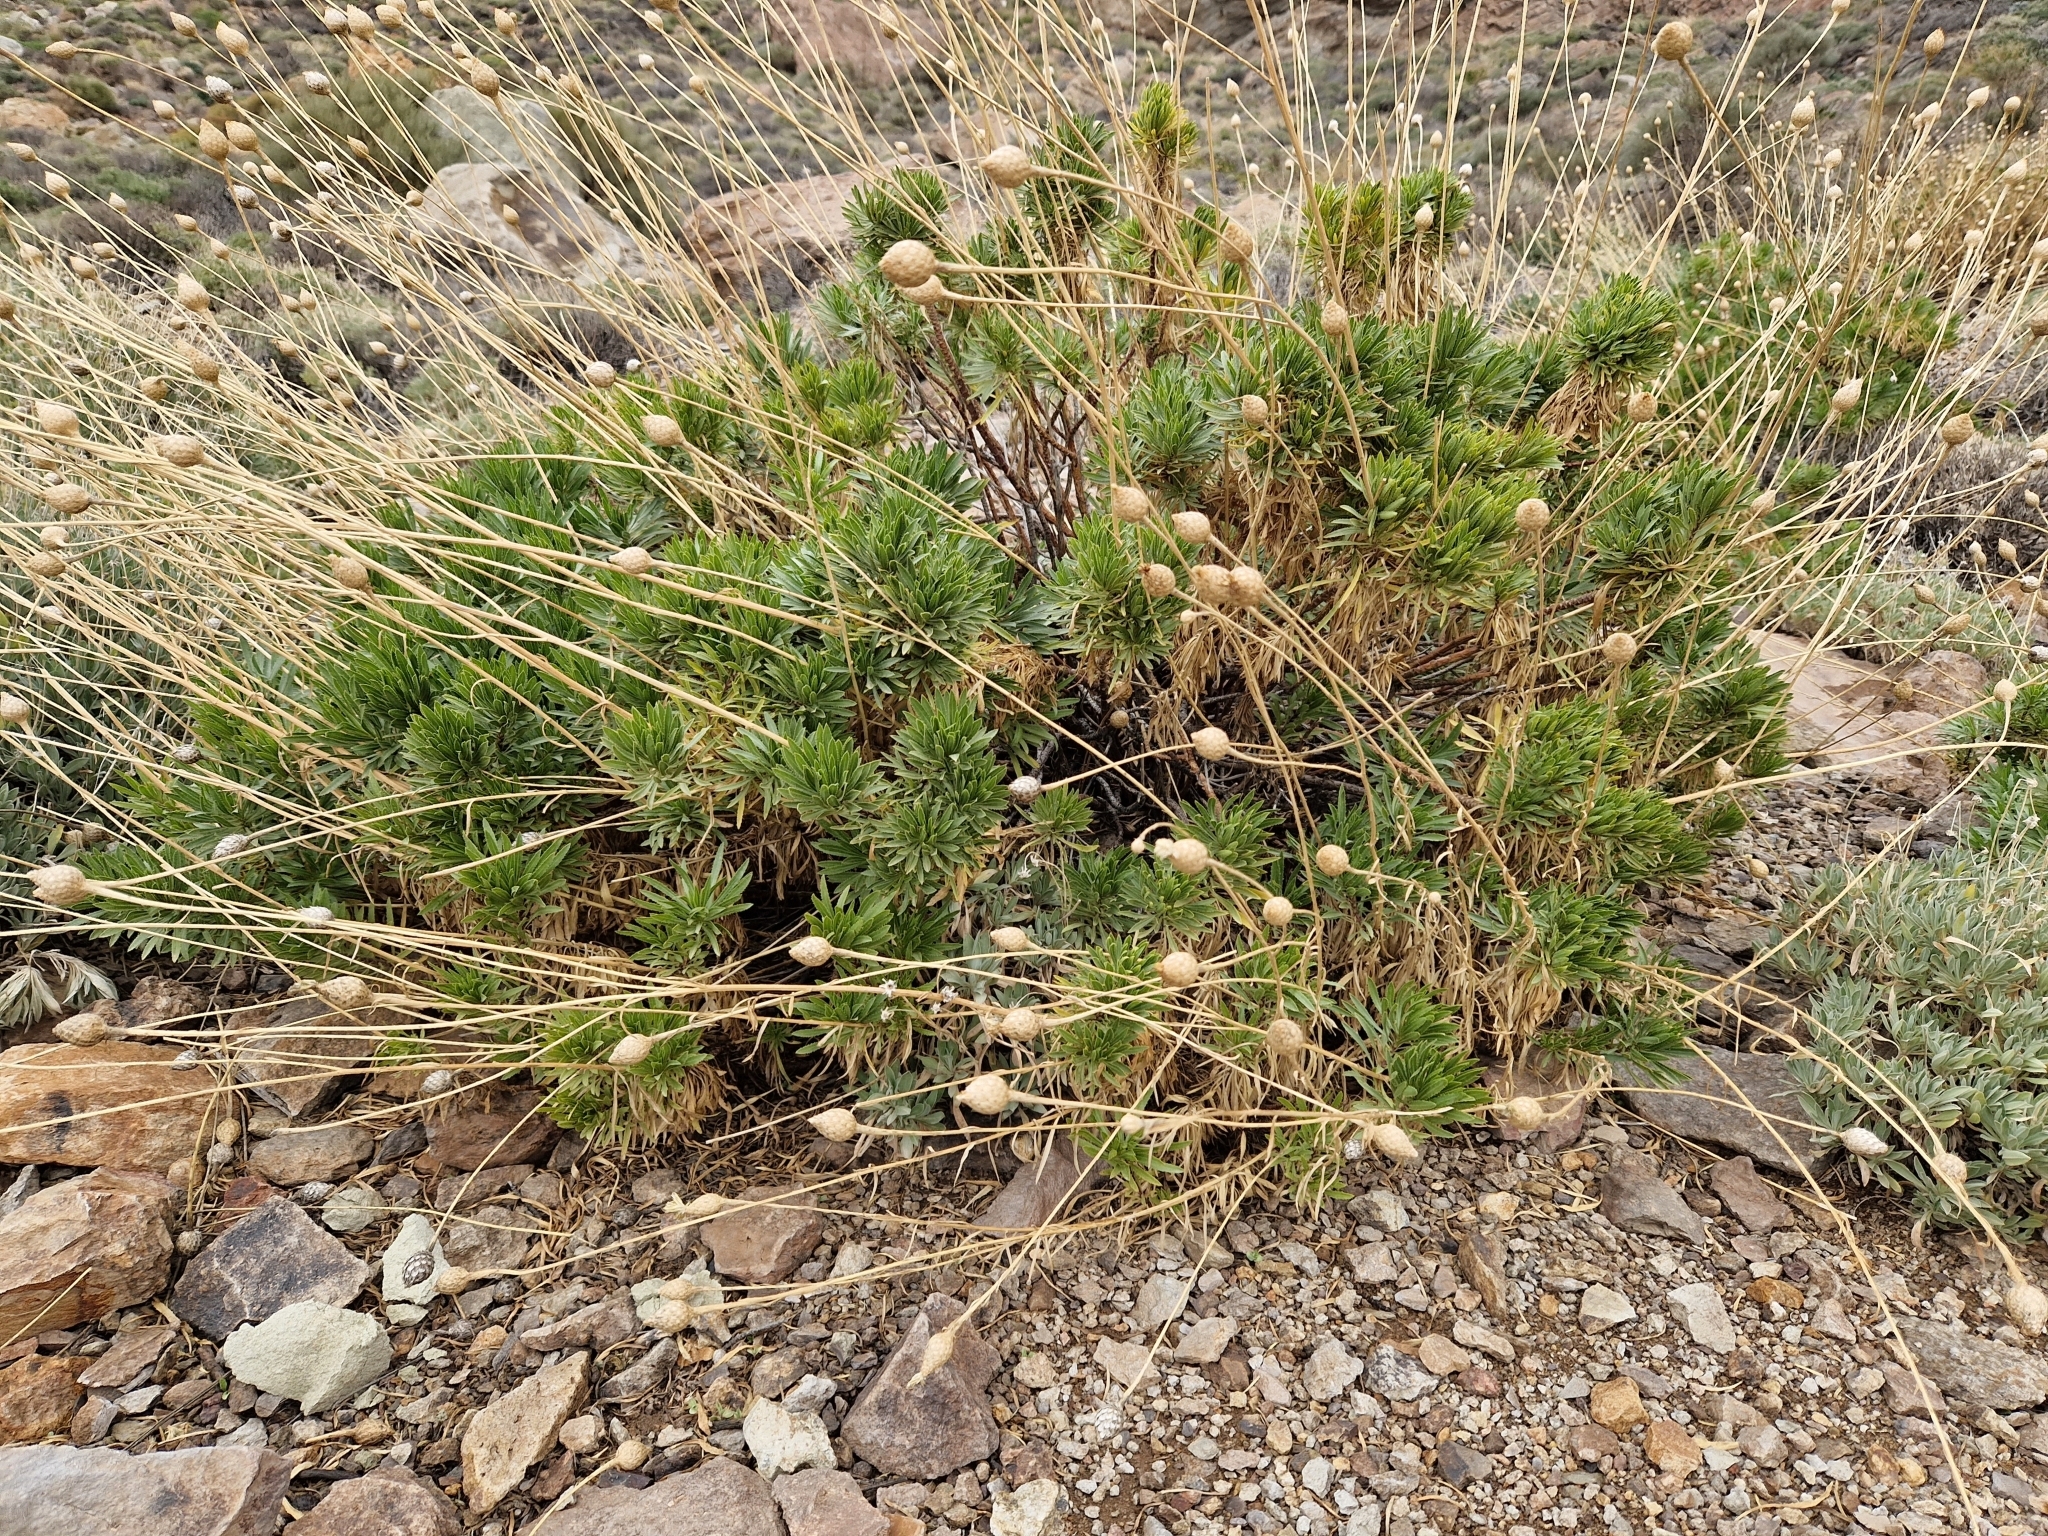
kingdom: Plantae
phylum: Tracheophyta
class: Magnoliopsida
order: Asterales
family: Asteraceae
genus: Cheirolophus
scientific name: Cheirolophus teydis
